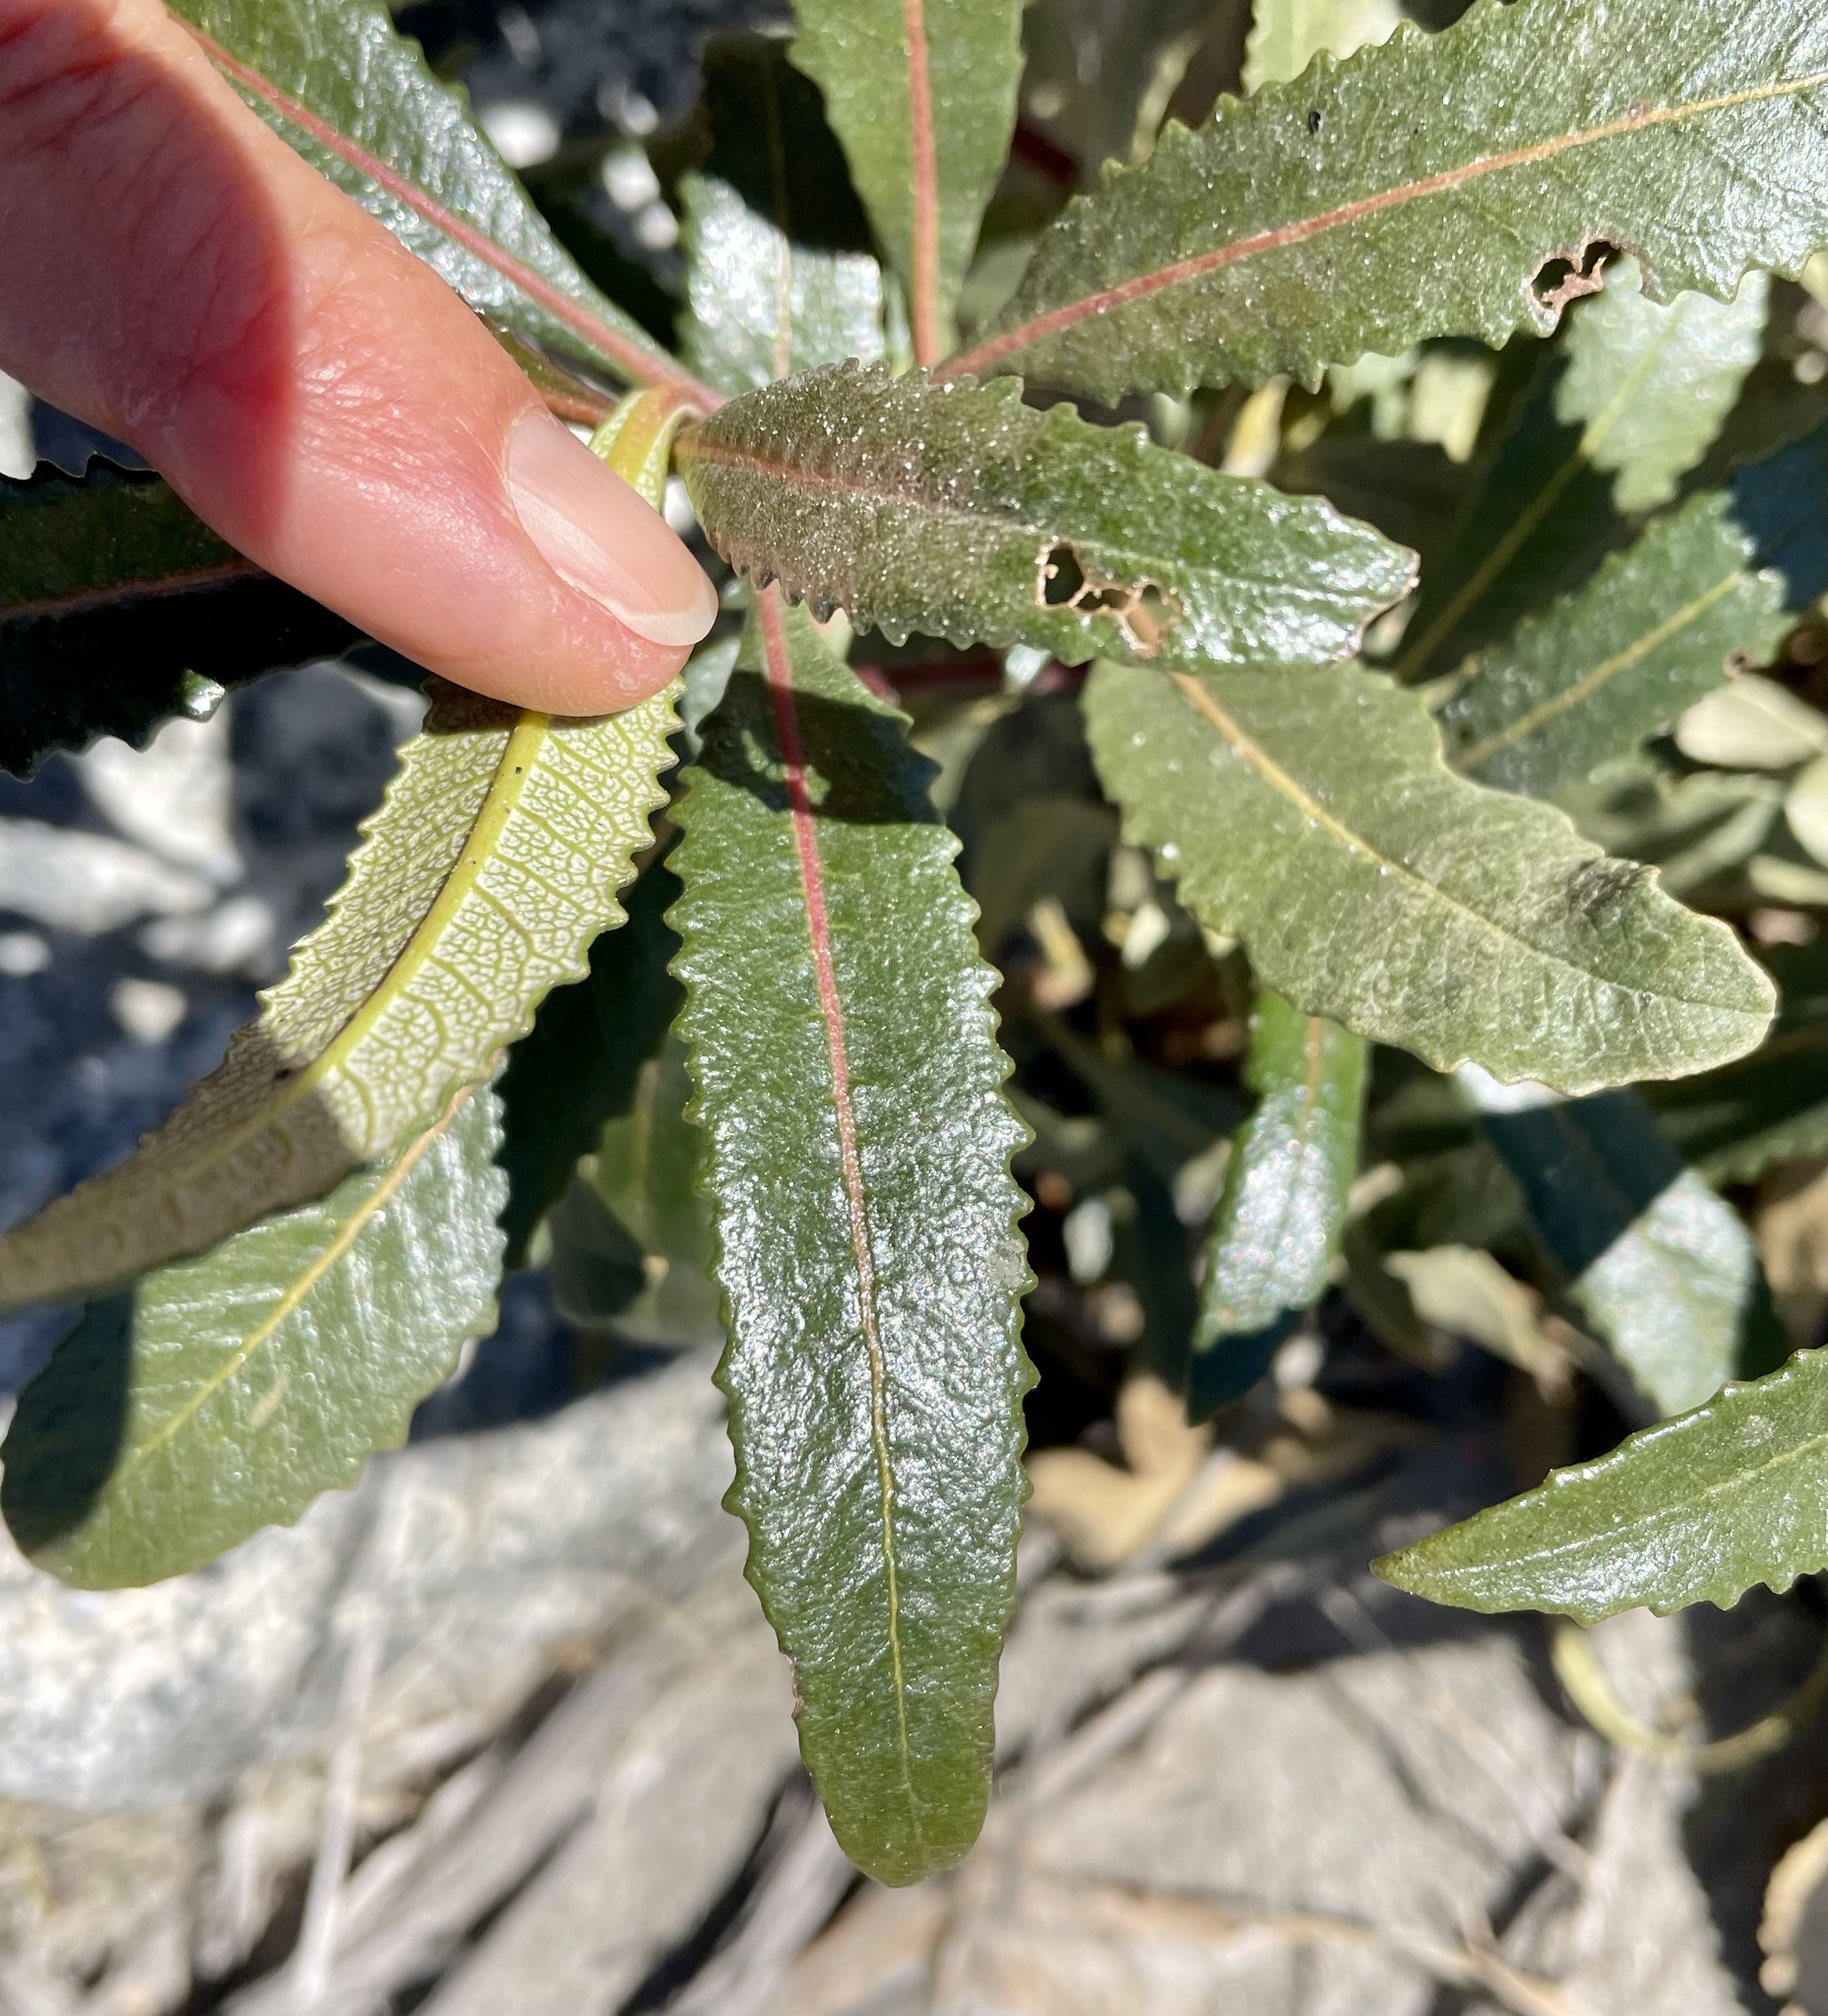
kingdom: Plantae
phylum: Tracheophyta
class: Magnoliopsida
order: Boraginales
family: Namaceae
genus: Eriodictyon
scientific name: Eriodictyon trichocalyx
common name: Hairy yerba-santa
